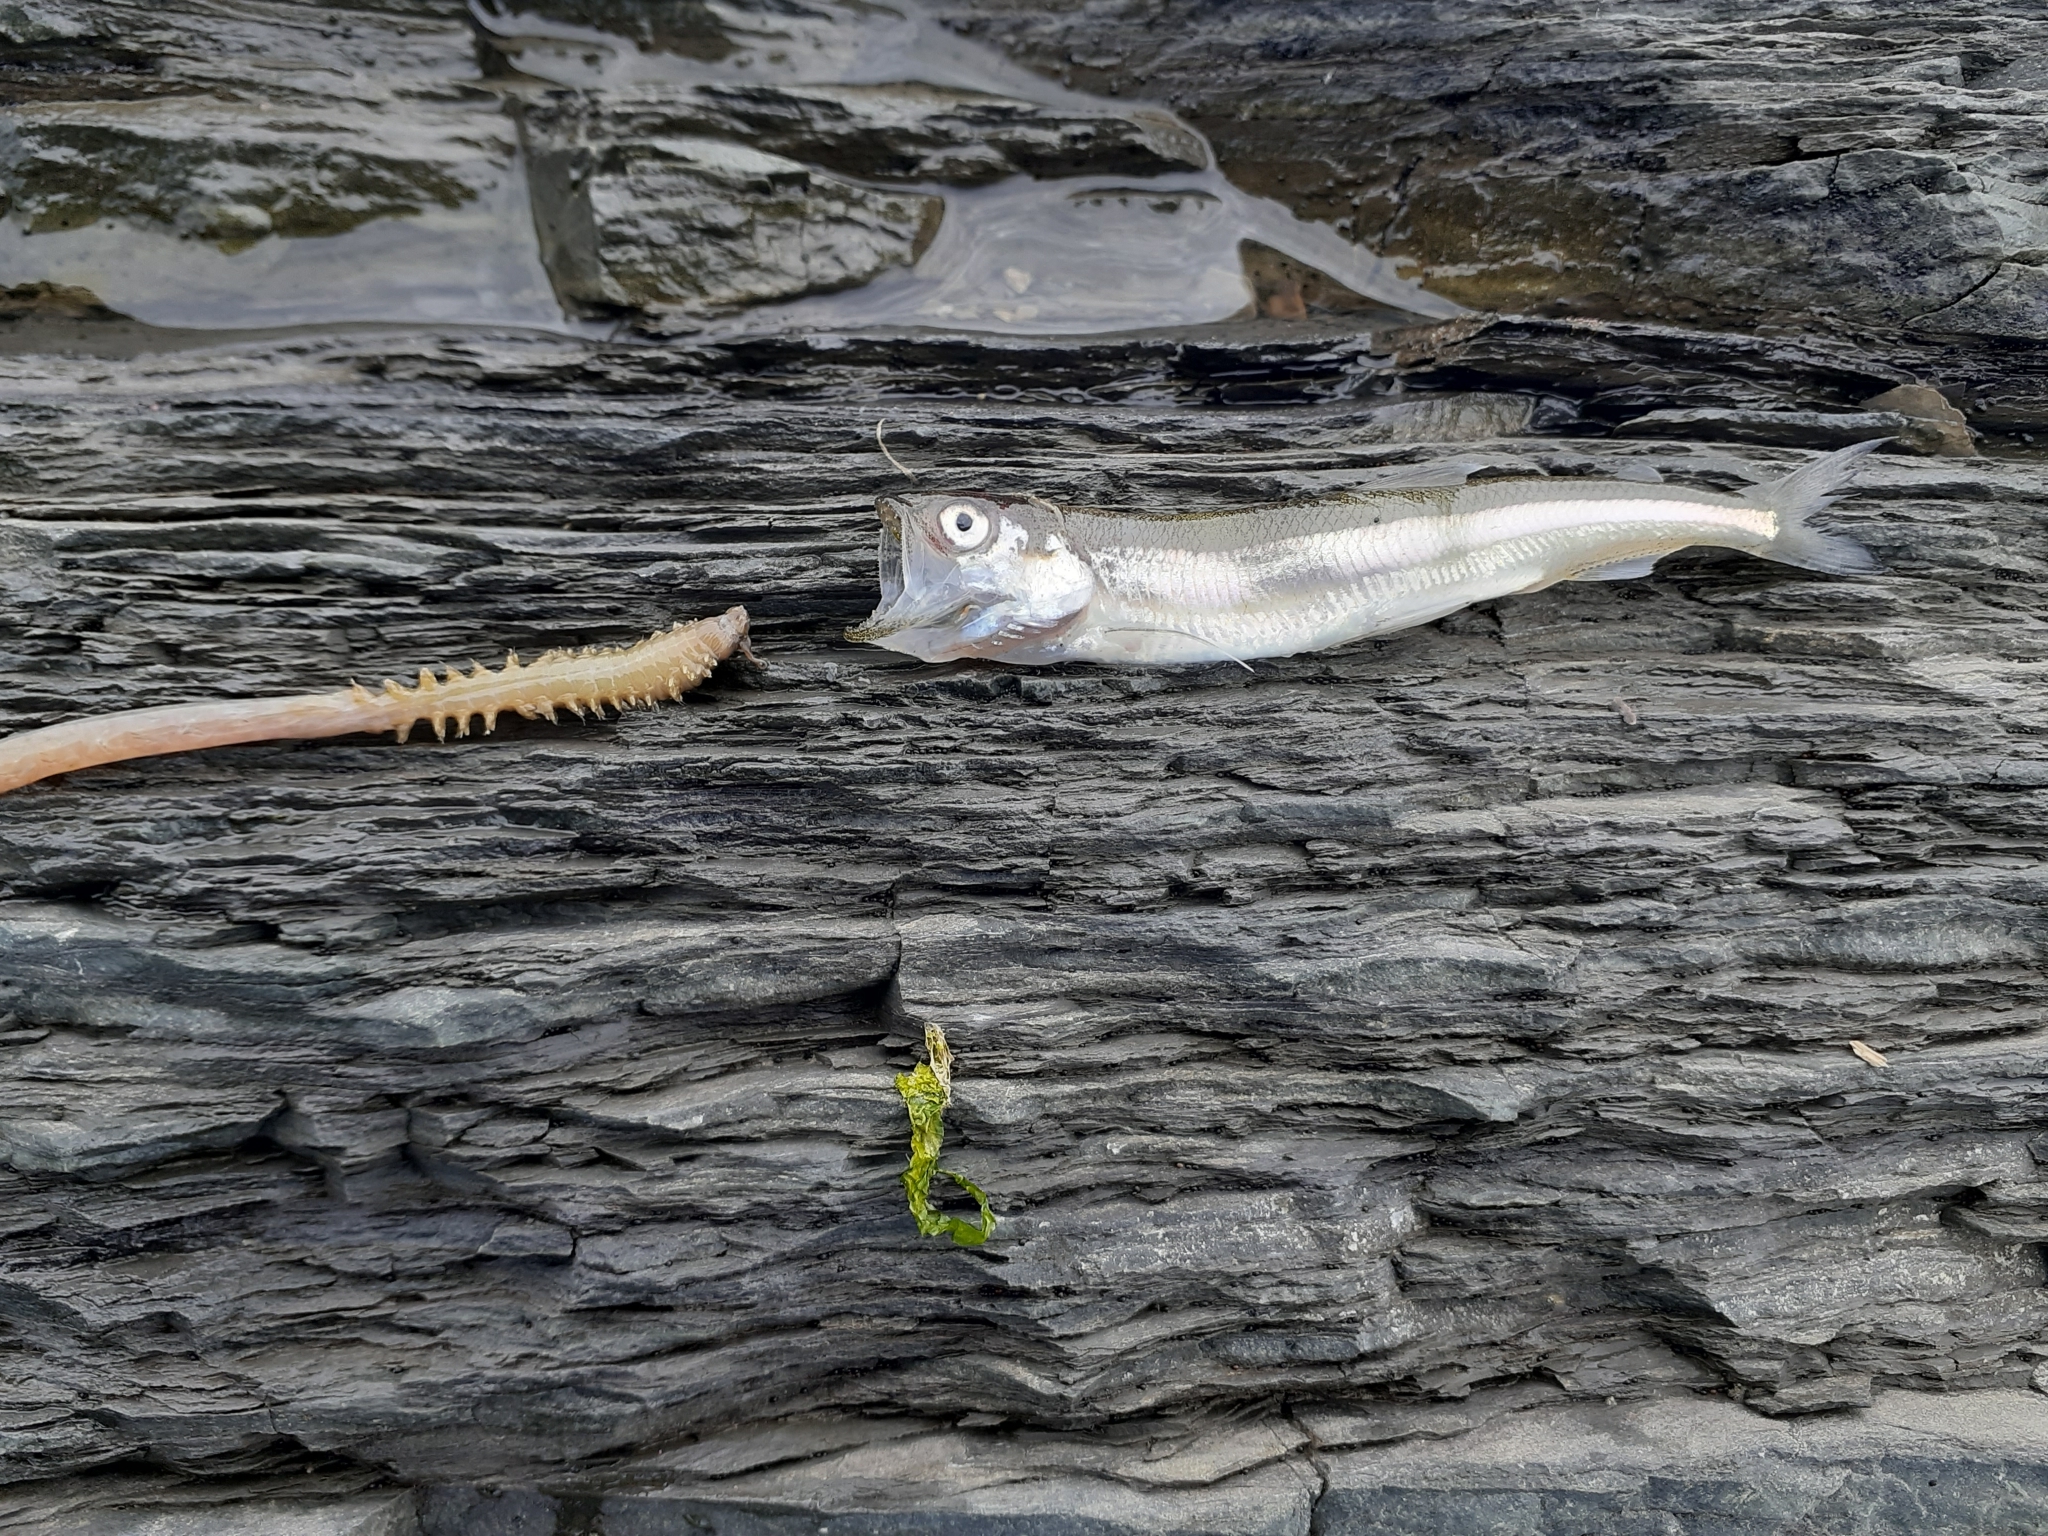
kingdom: Animalia
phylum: Chordata
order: Osmeriformes
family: Osmeridae
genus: Mallotus
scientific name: Mallotus villosus
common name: Capelin
